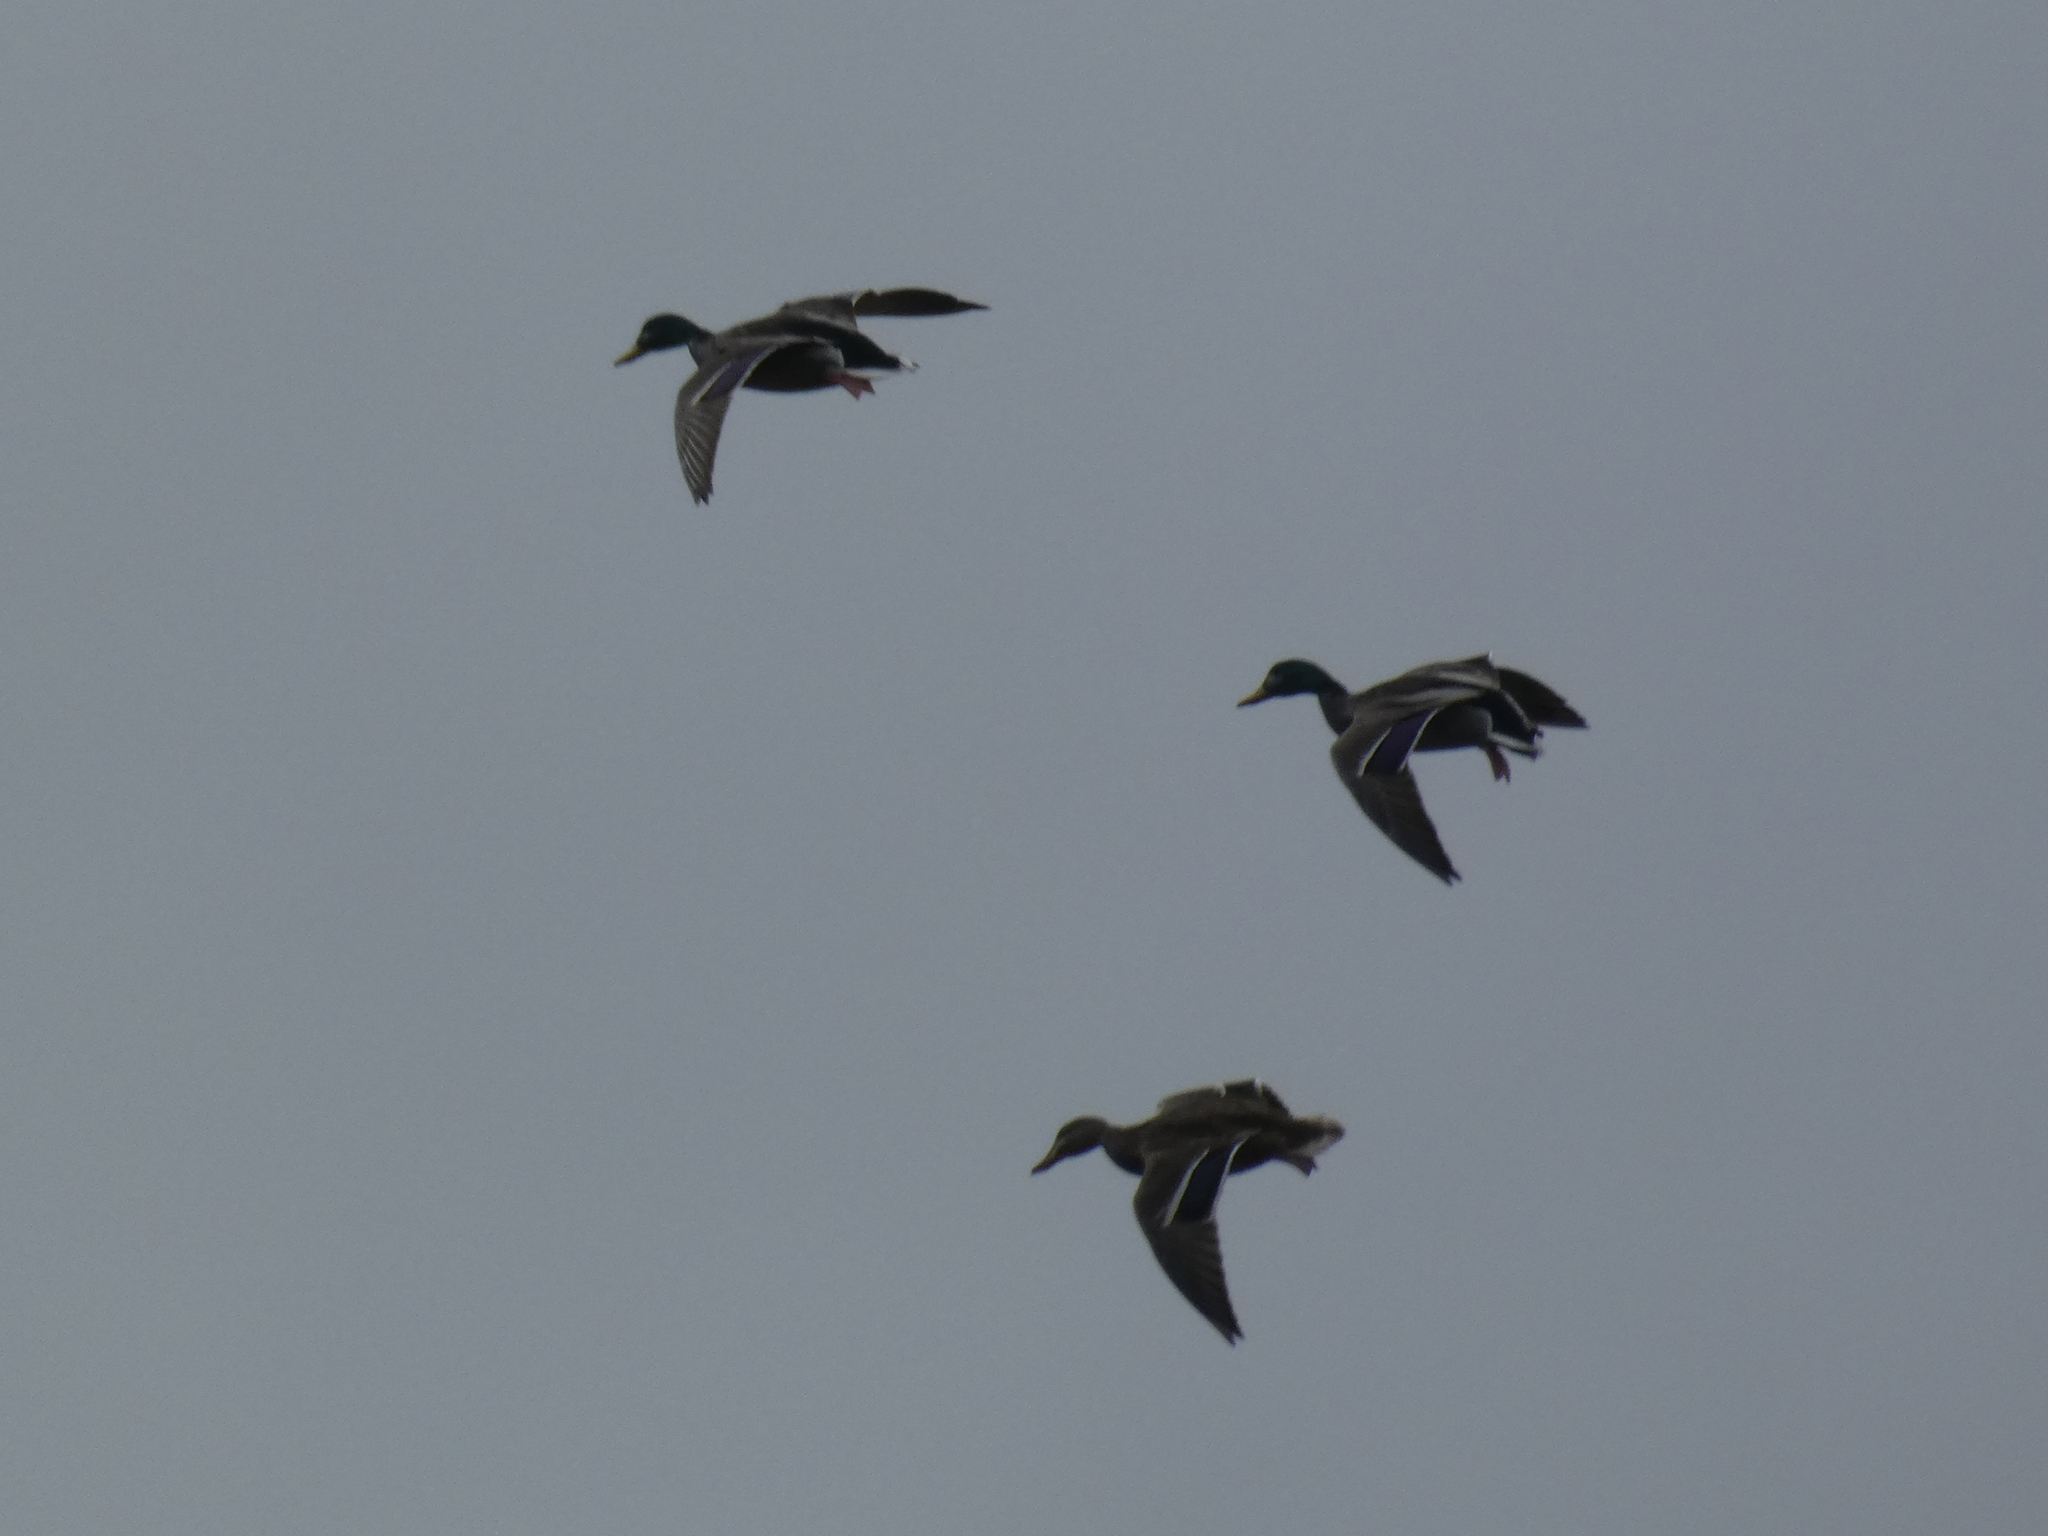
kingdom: Animalia
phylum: Chordata
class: Aves
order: Anseriformes
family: Anatidae
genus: Anas
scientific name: Anas platyrhynchos
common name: Mallard
